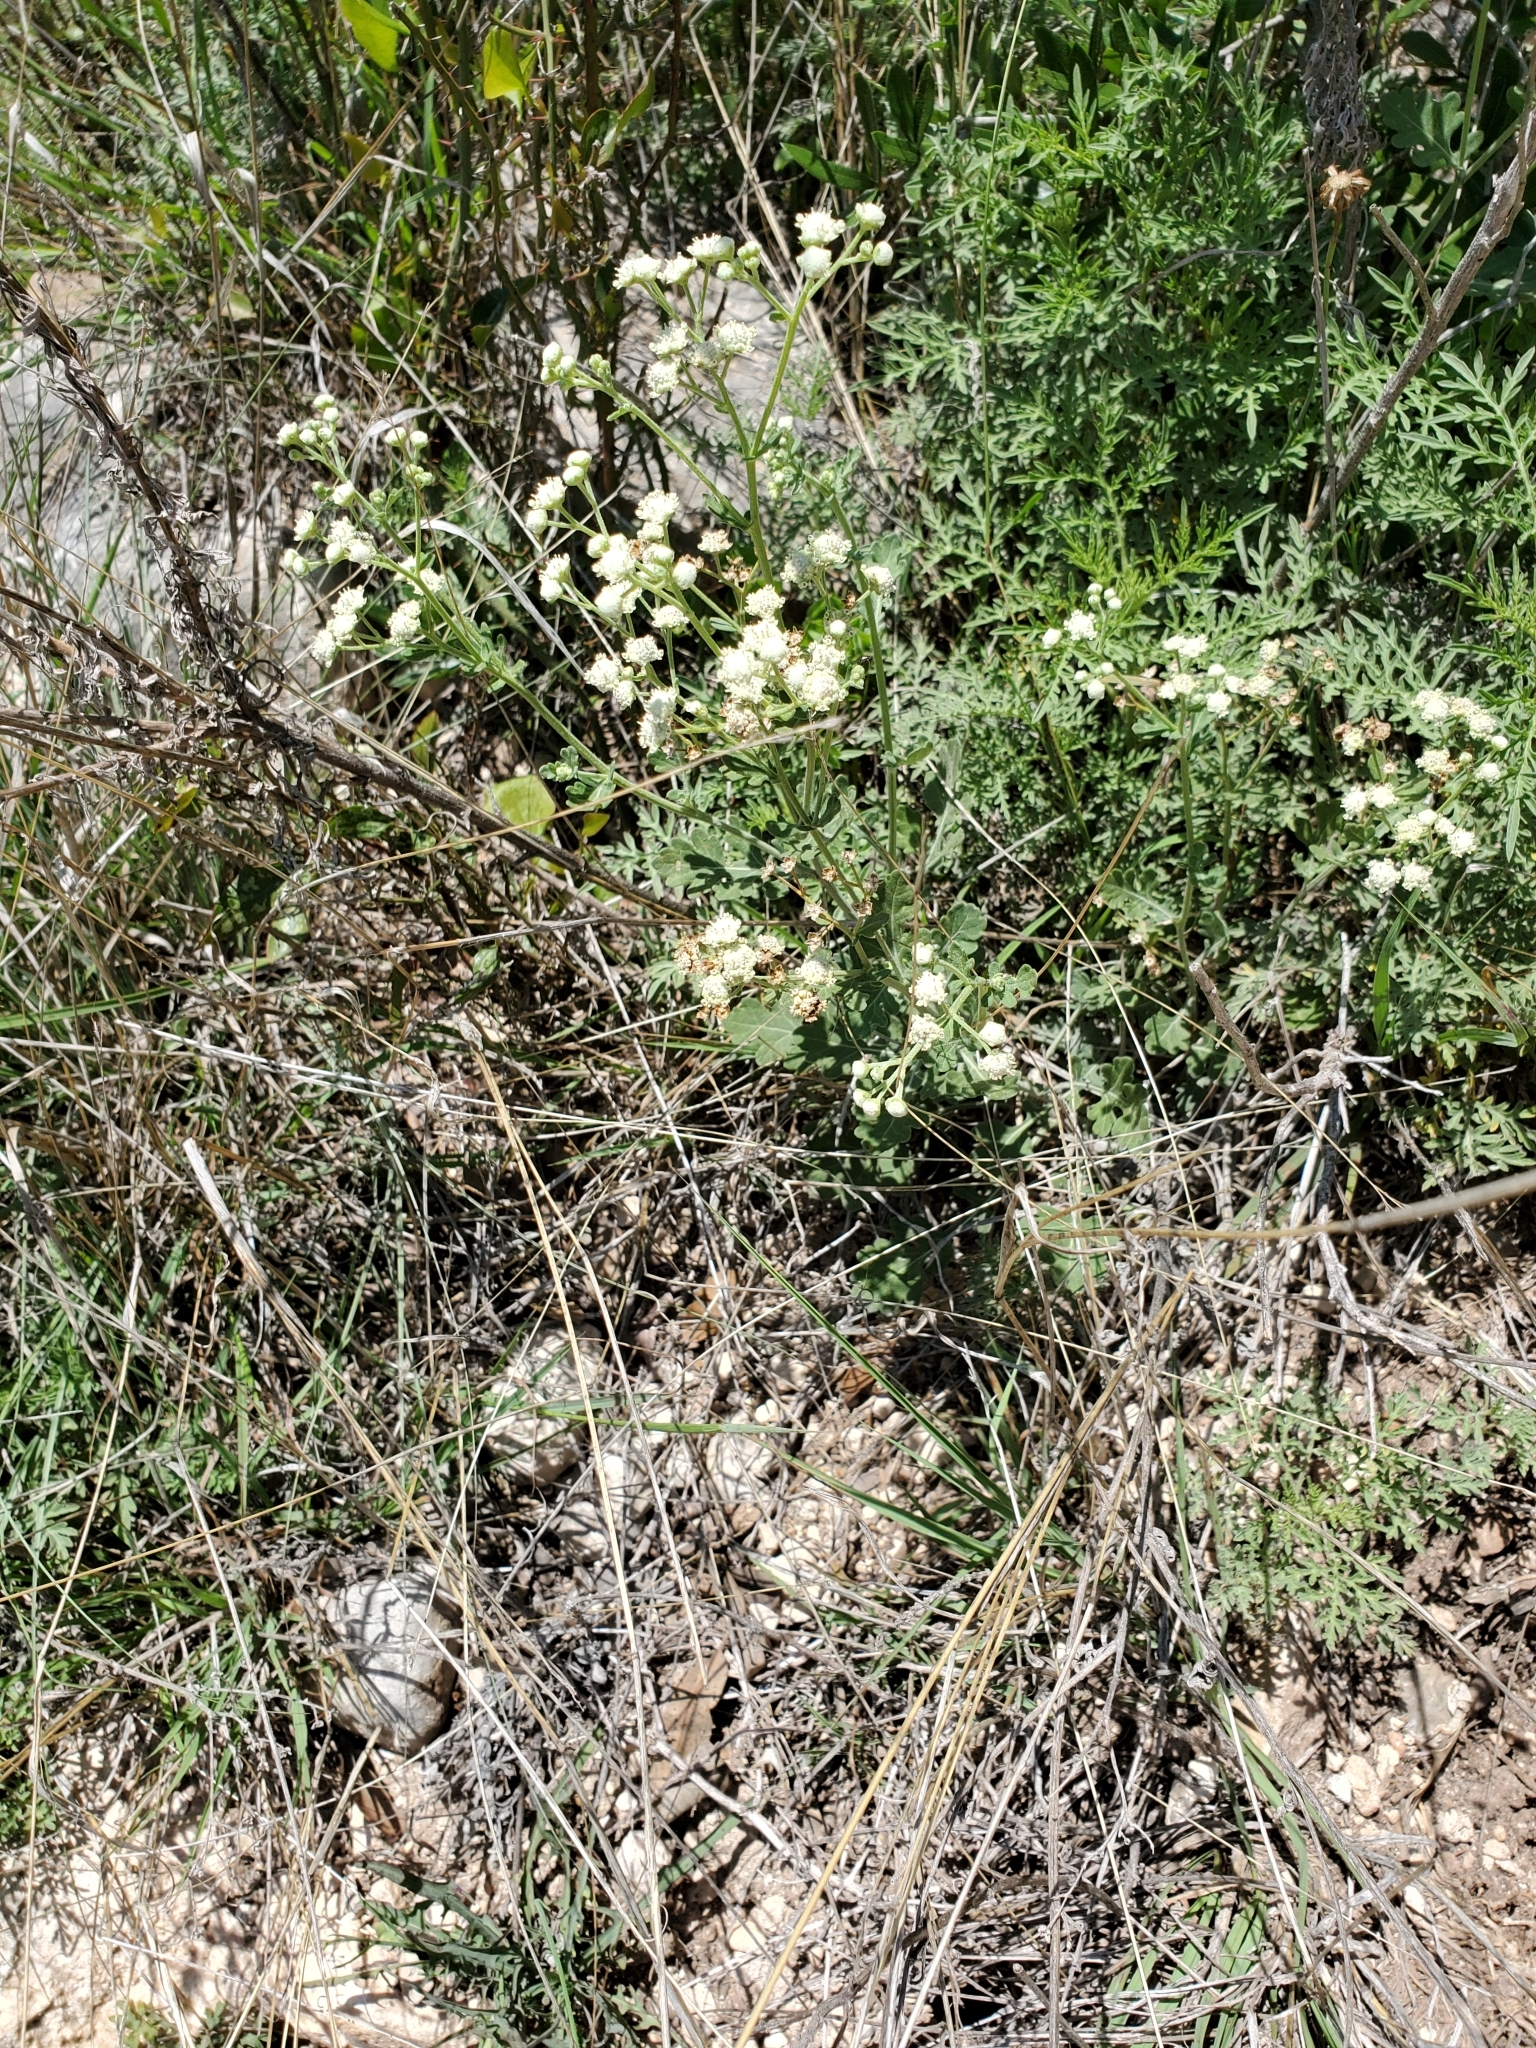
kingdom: Plantae
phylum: Tracheophyta
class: Magnoliopsida
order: Asterales
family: Asteraceae
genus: Parthenium
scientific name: Parthenium confertum
